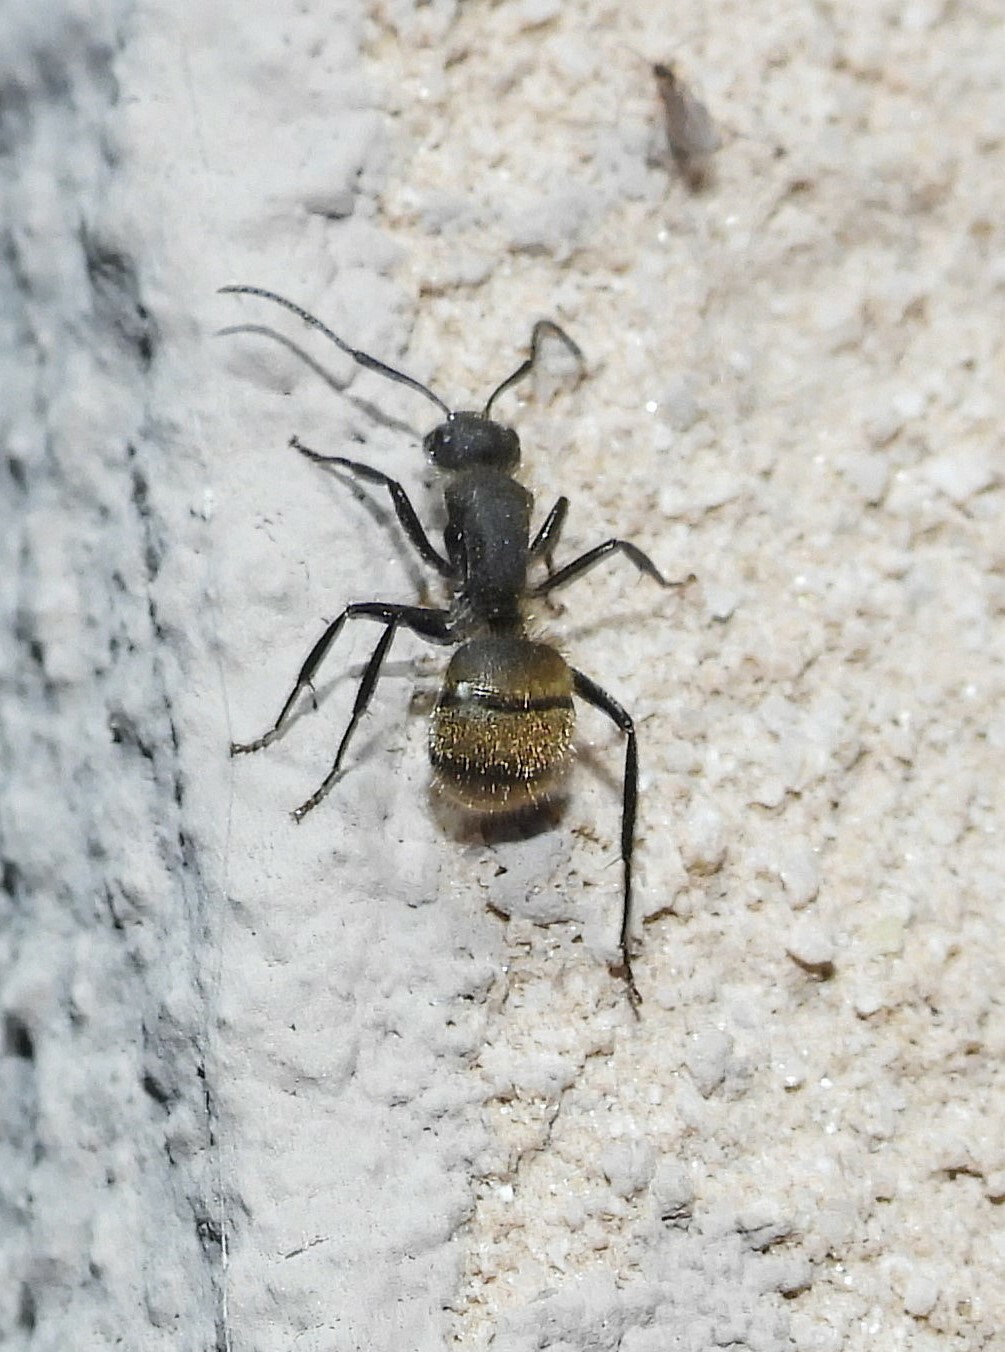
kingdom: Animalia
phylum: Arthropoda
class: Insecta
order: Hymenoptera
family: Formicidae
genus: Camponotus
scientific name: Camponotus mus
